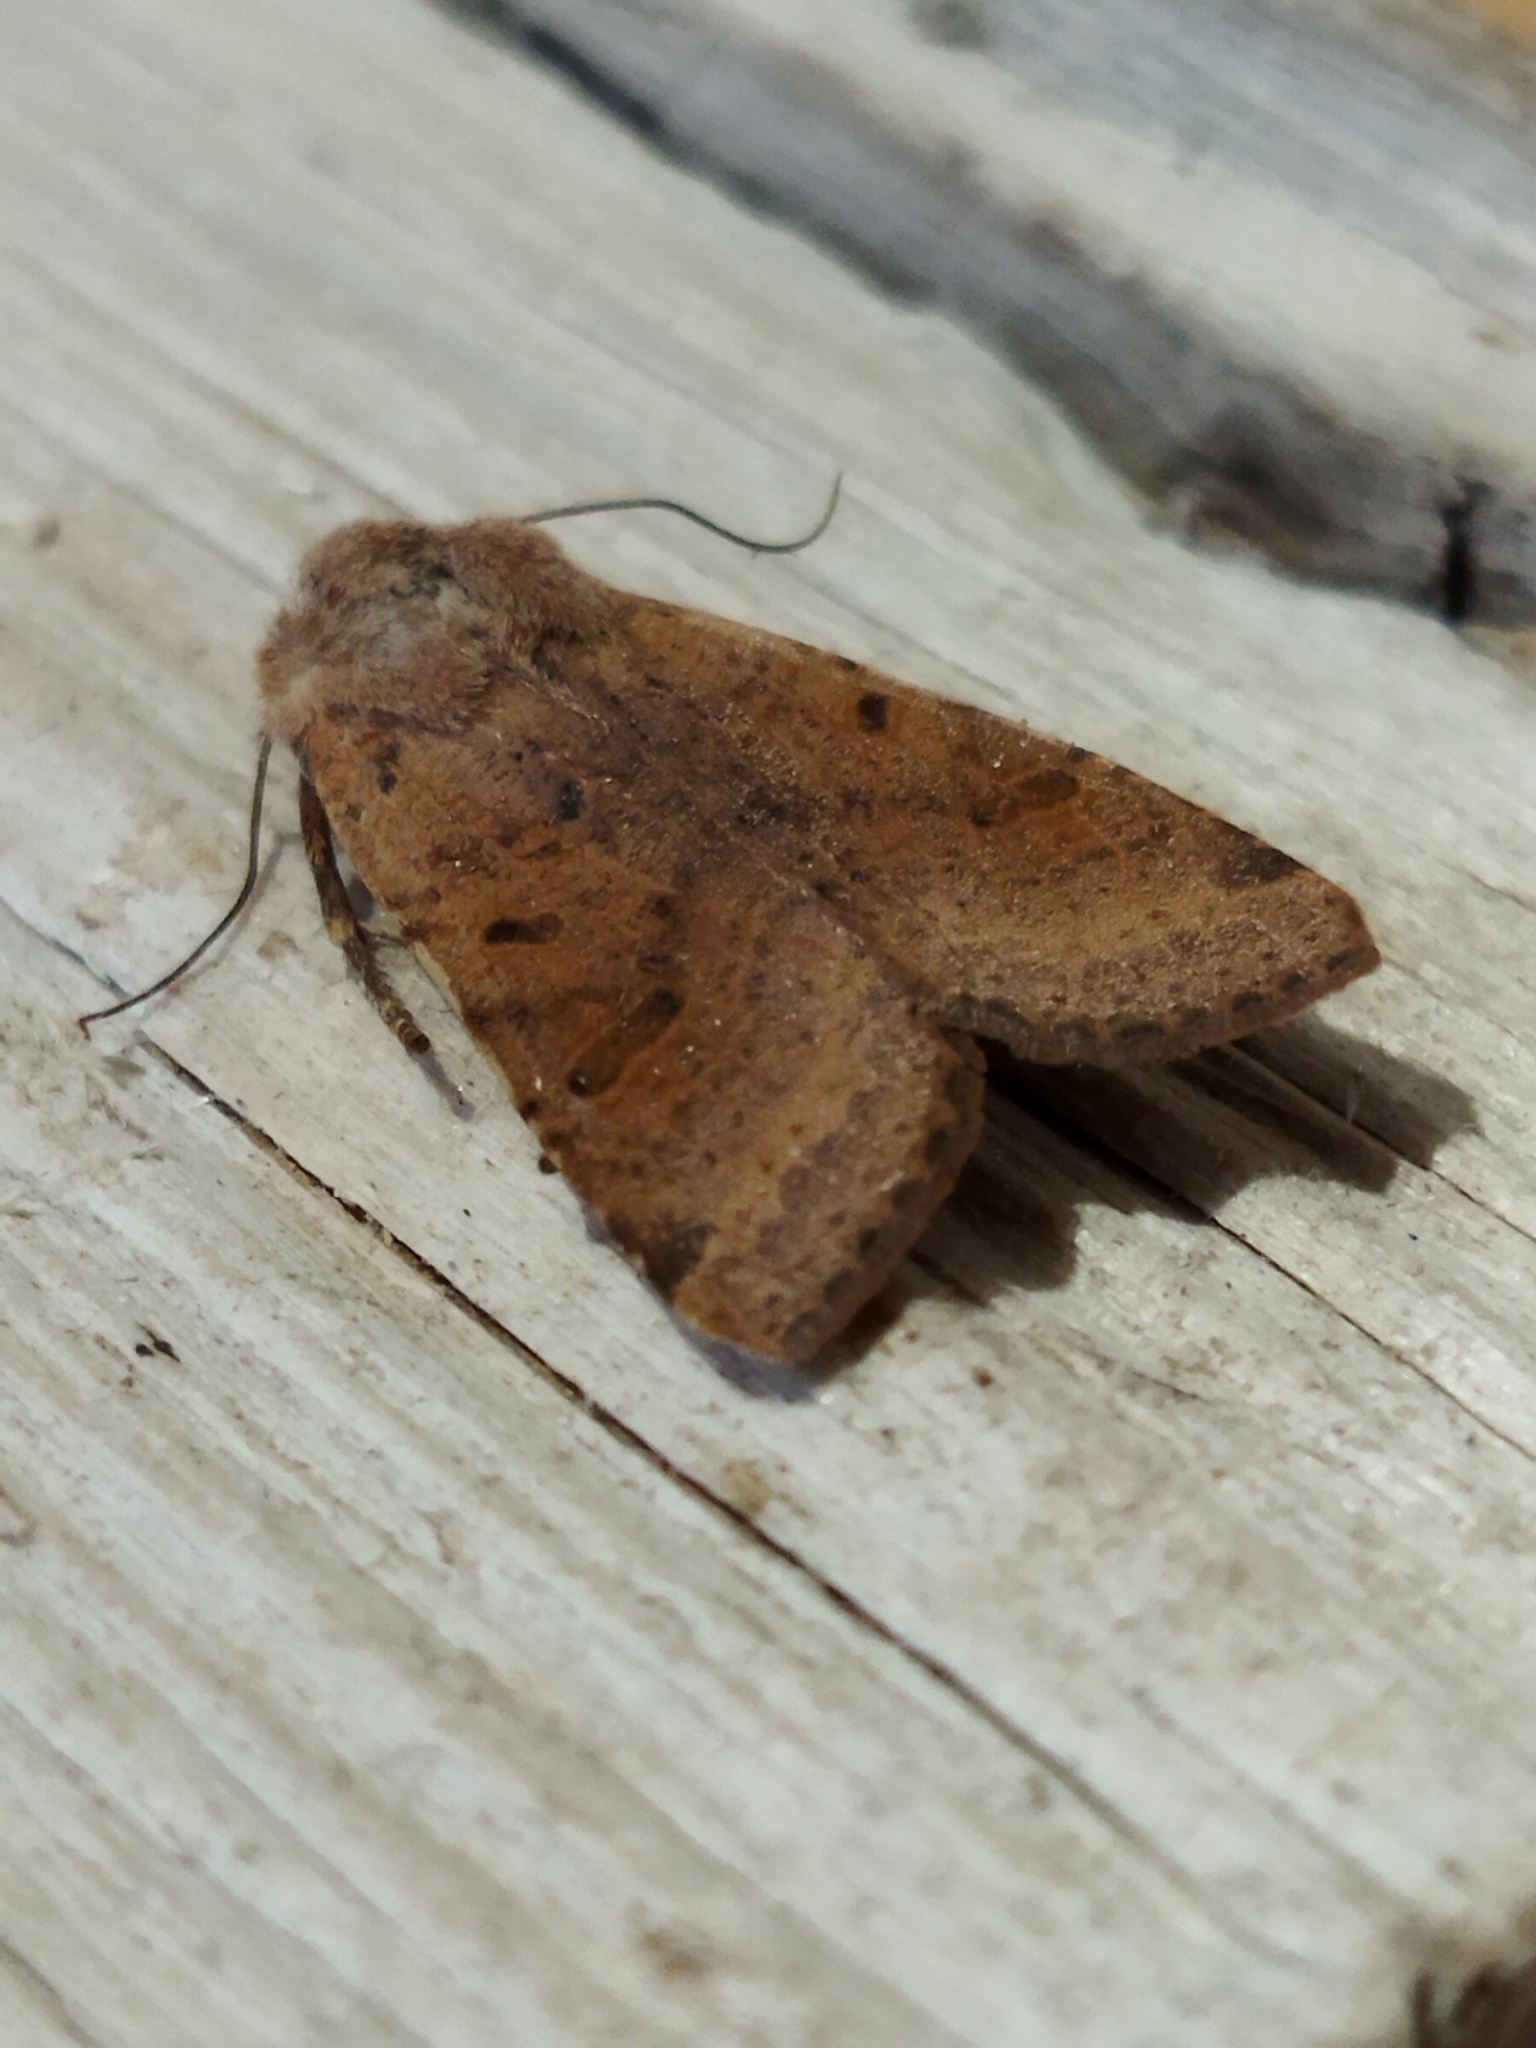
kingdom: Animalia
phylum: Arthropoda
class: Insecta
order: Lepidoptera
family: Noctuidae
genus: Agrochola
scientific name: Agrochola lychnidis
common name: Beaded chestnut
